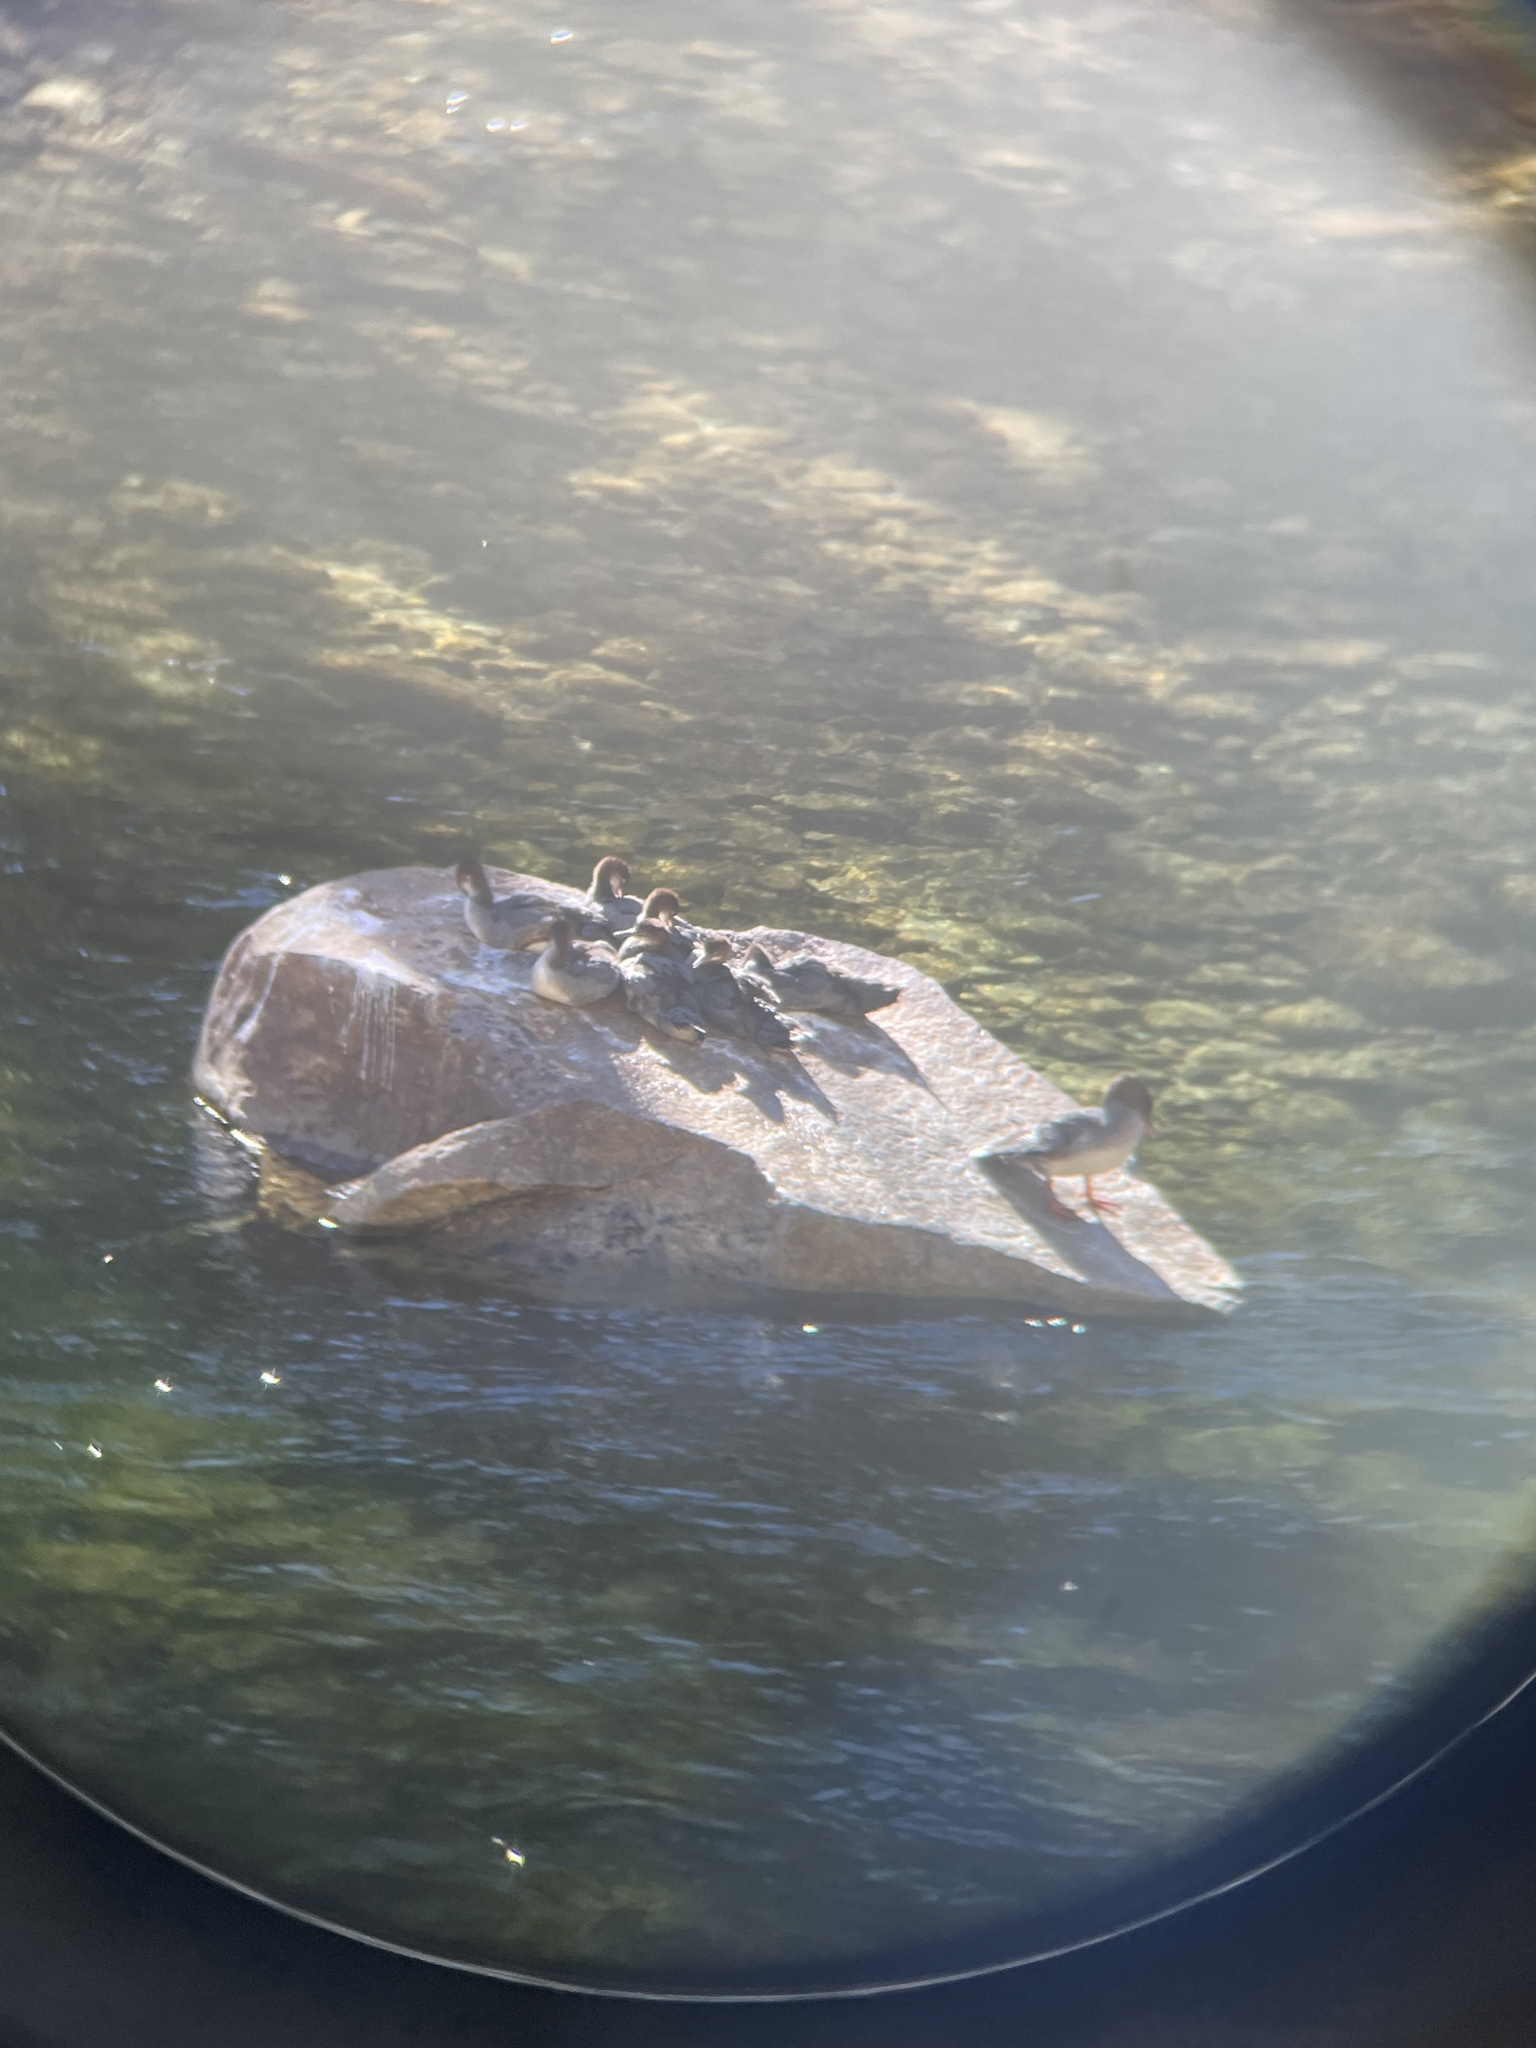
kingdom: Animalia
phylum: Chordata
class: Aves
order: Anseriformes
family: Anatidae
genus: Mergus
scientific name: Mergus merganser
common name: Common merganser
